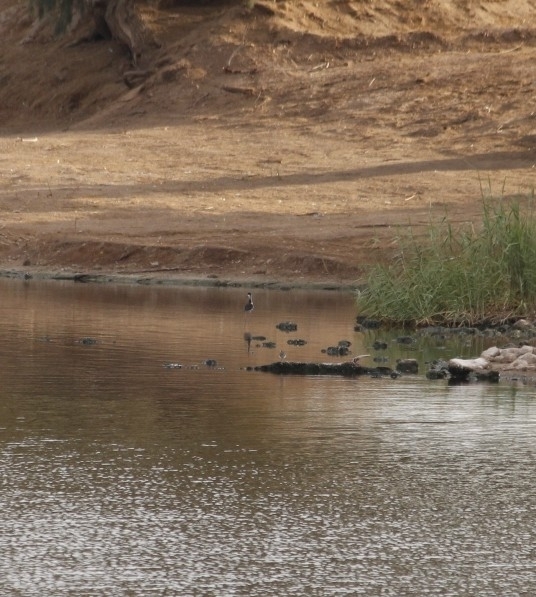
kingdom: Animalia
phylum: Chordata
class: Aves
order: Charadriiformes
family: Recurvirostridae
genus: Himantopus
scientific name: Himantopus mexicanus
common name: Black-necked stilt
